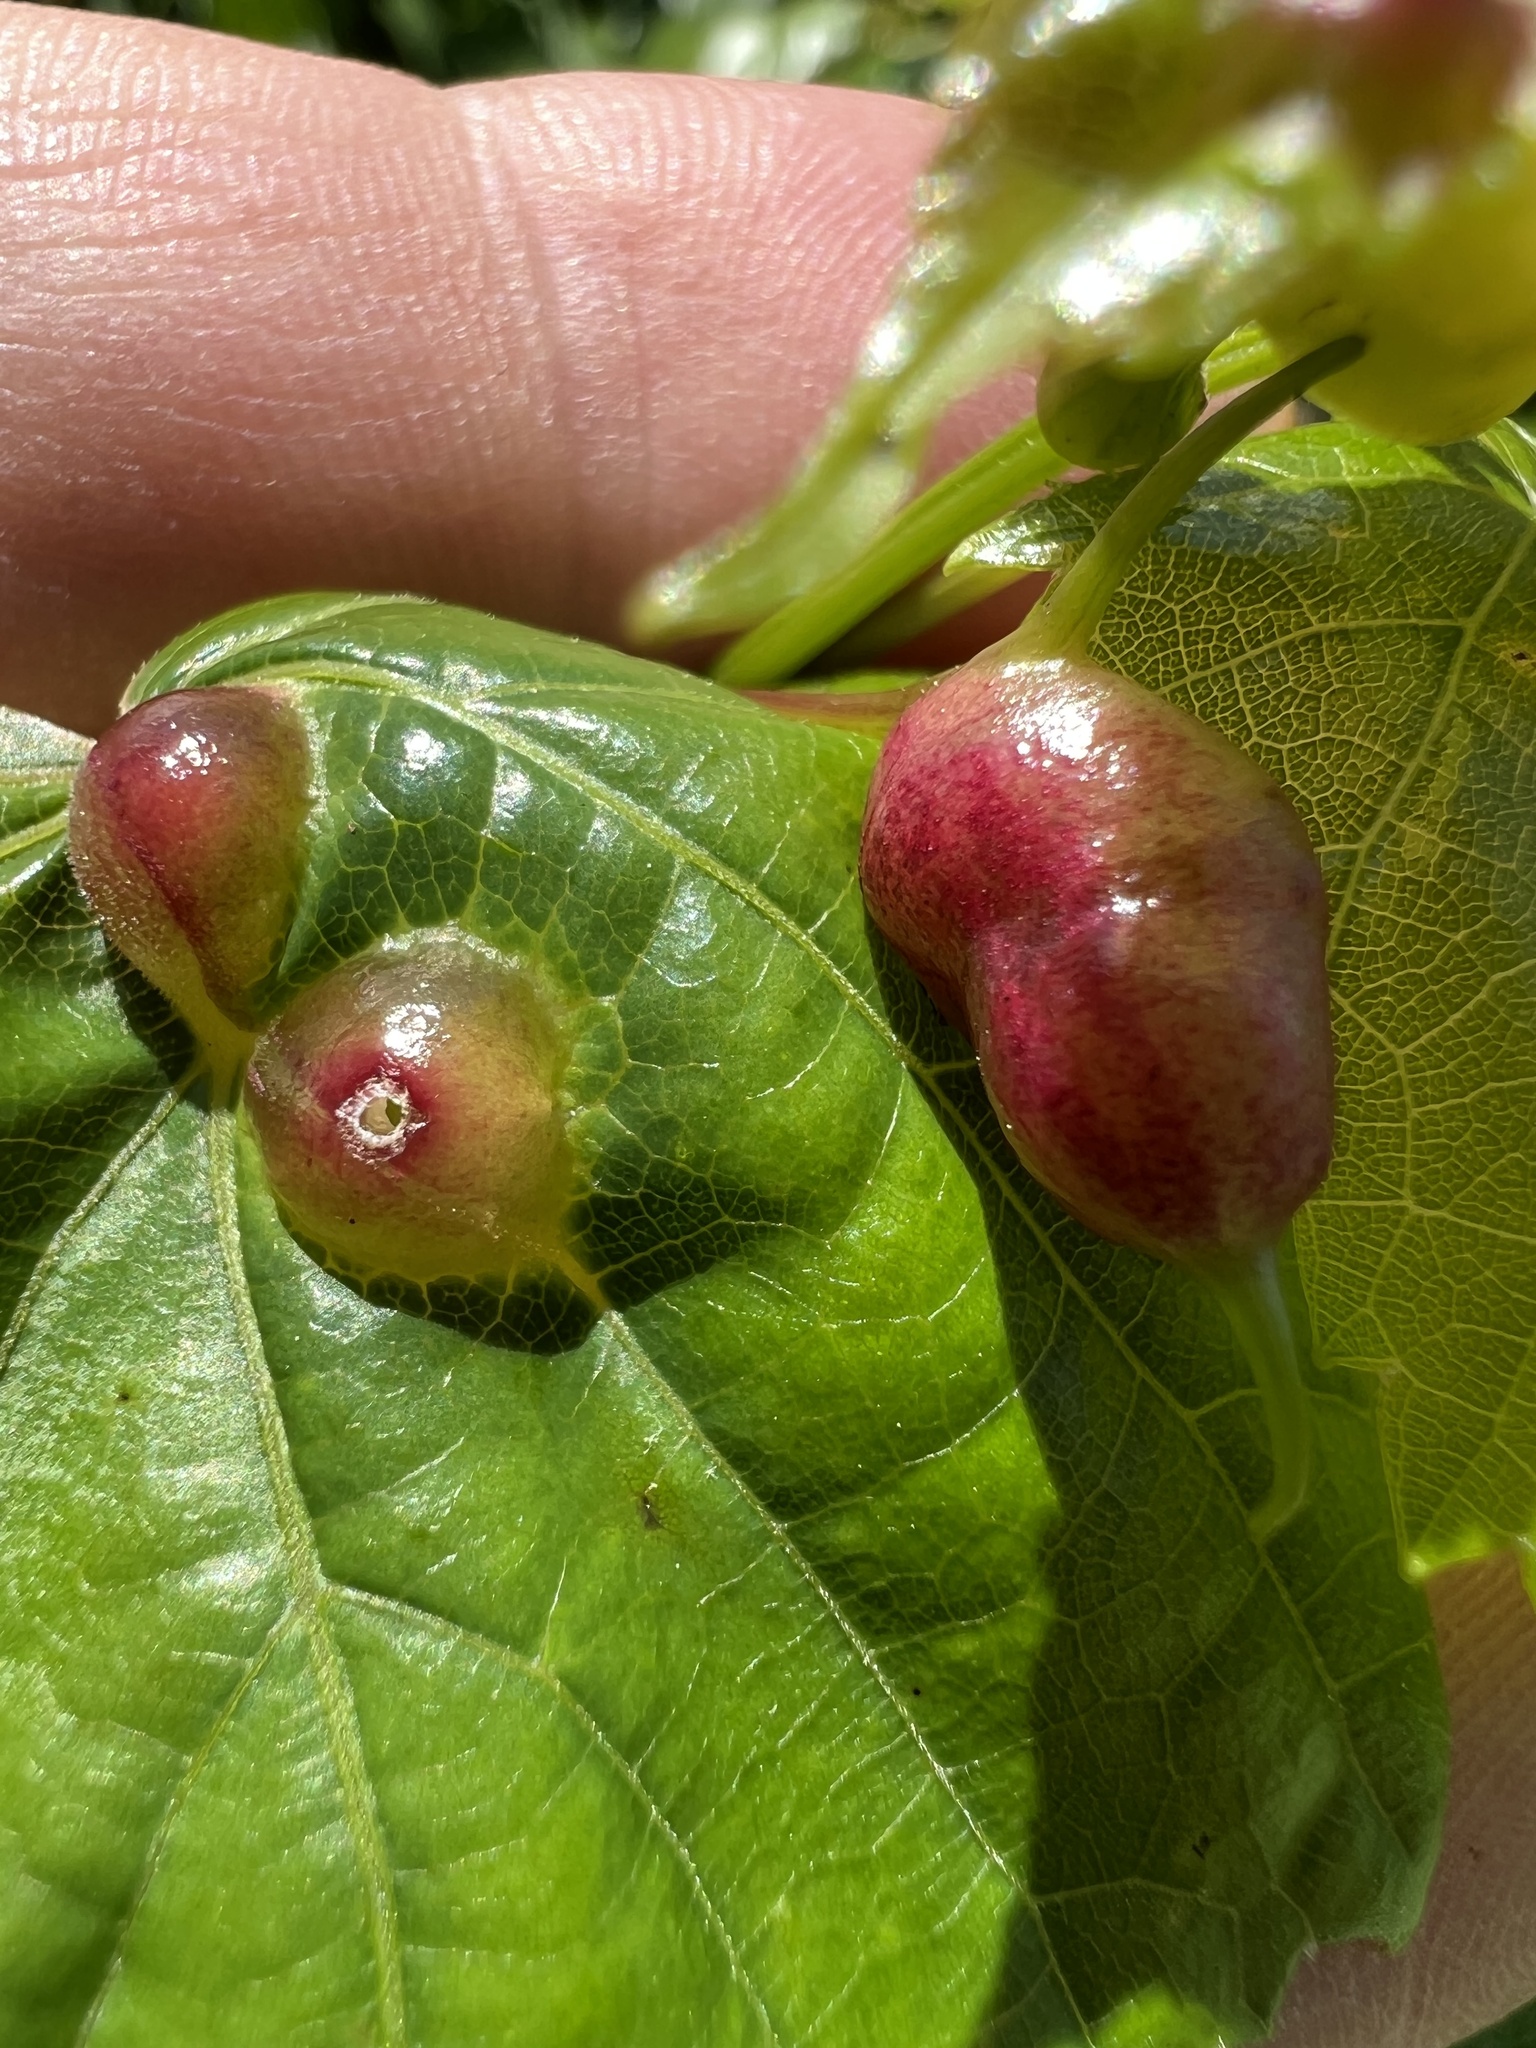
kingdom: Animalia
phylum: Arthropoda
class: Insecta
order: Diptera
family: Cecidomyiidae
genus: Vitisiella
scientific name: Vitisiella brevicauda
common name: Grape tumid gallmaker midge
